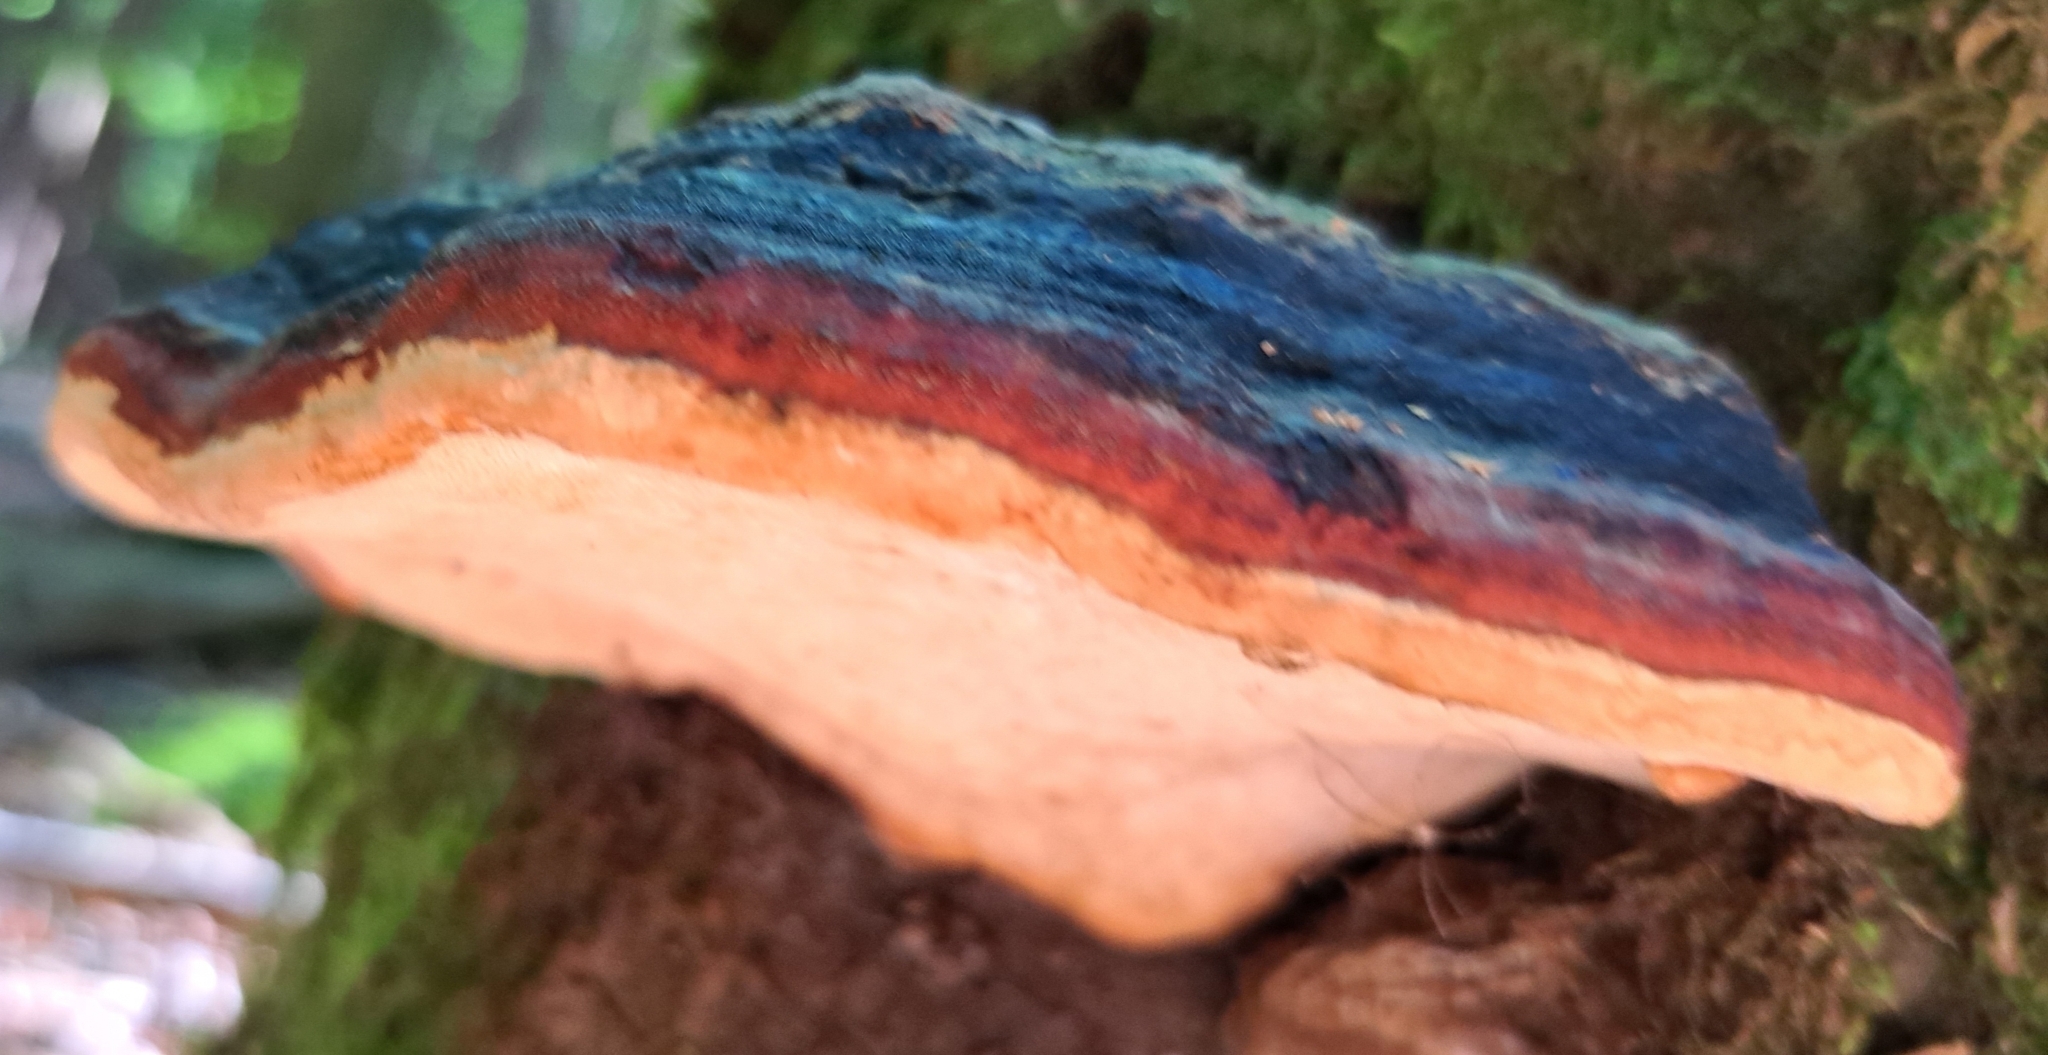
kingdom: Fungi
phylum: Basidiomycota
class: Agaricomycetes
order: Polyporales
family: Fomitopsidaceae
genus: Fomitopsis
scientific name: Fomitopsis pinicola
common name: Red-belted bracket
